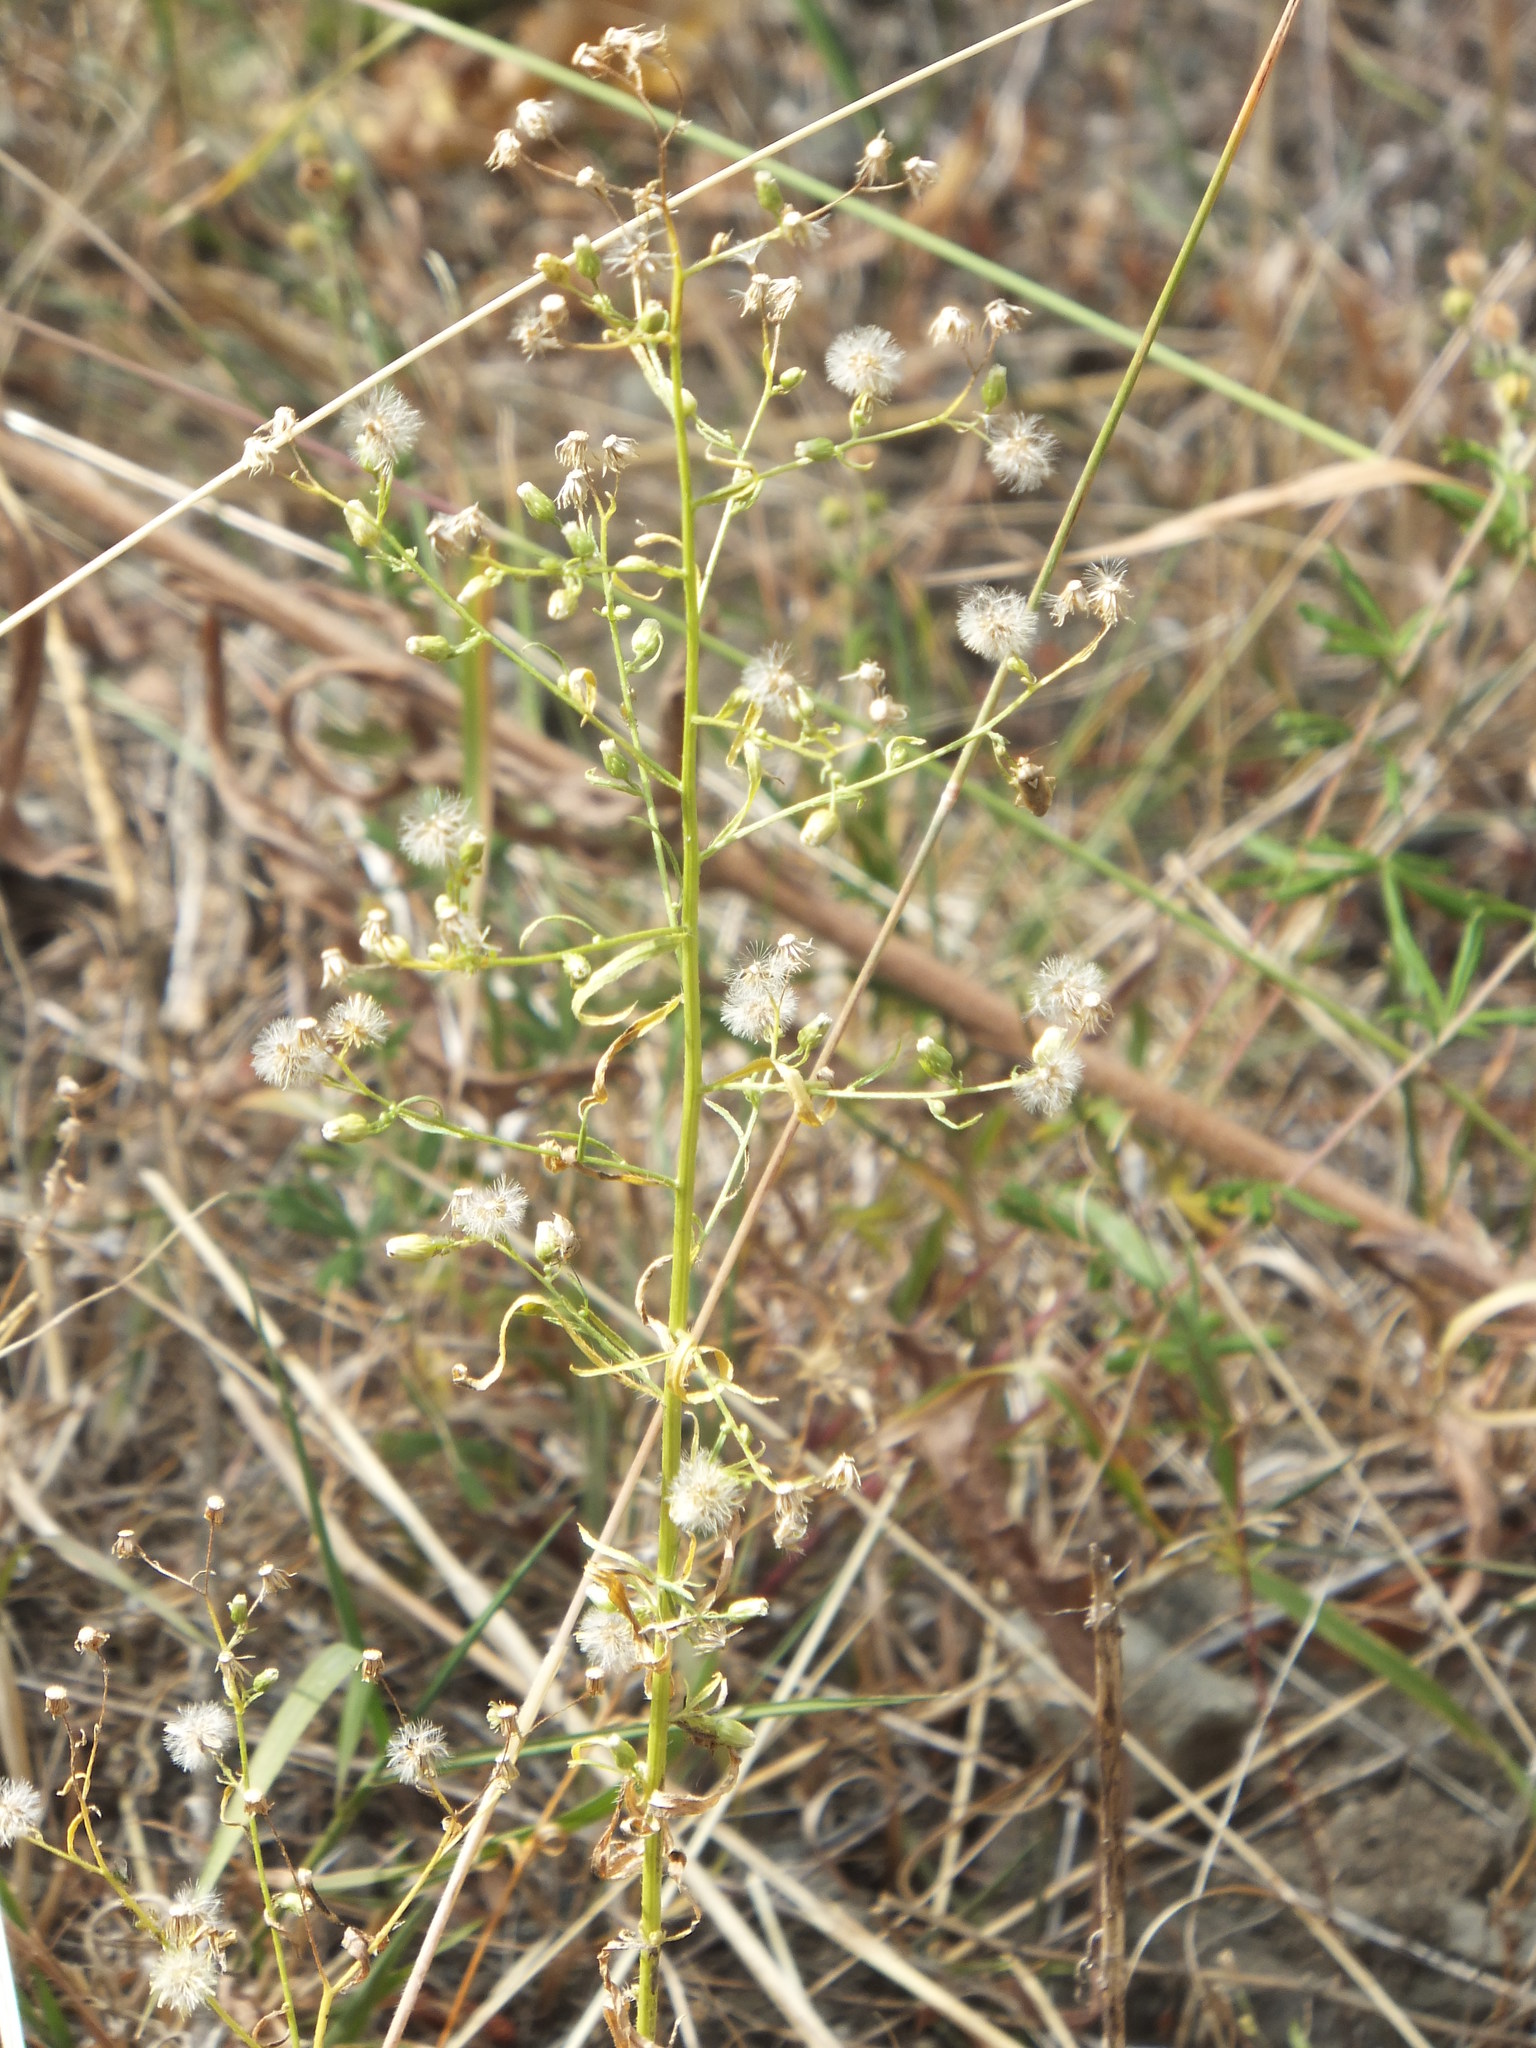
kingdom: Plantae
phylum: Tracheophyta
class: Magnoliopsida
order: Asterales
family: Asteraceae
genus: Erigeron
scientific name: Erigeron canadensis
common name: Canadian fleabane
